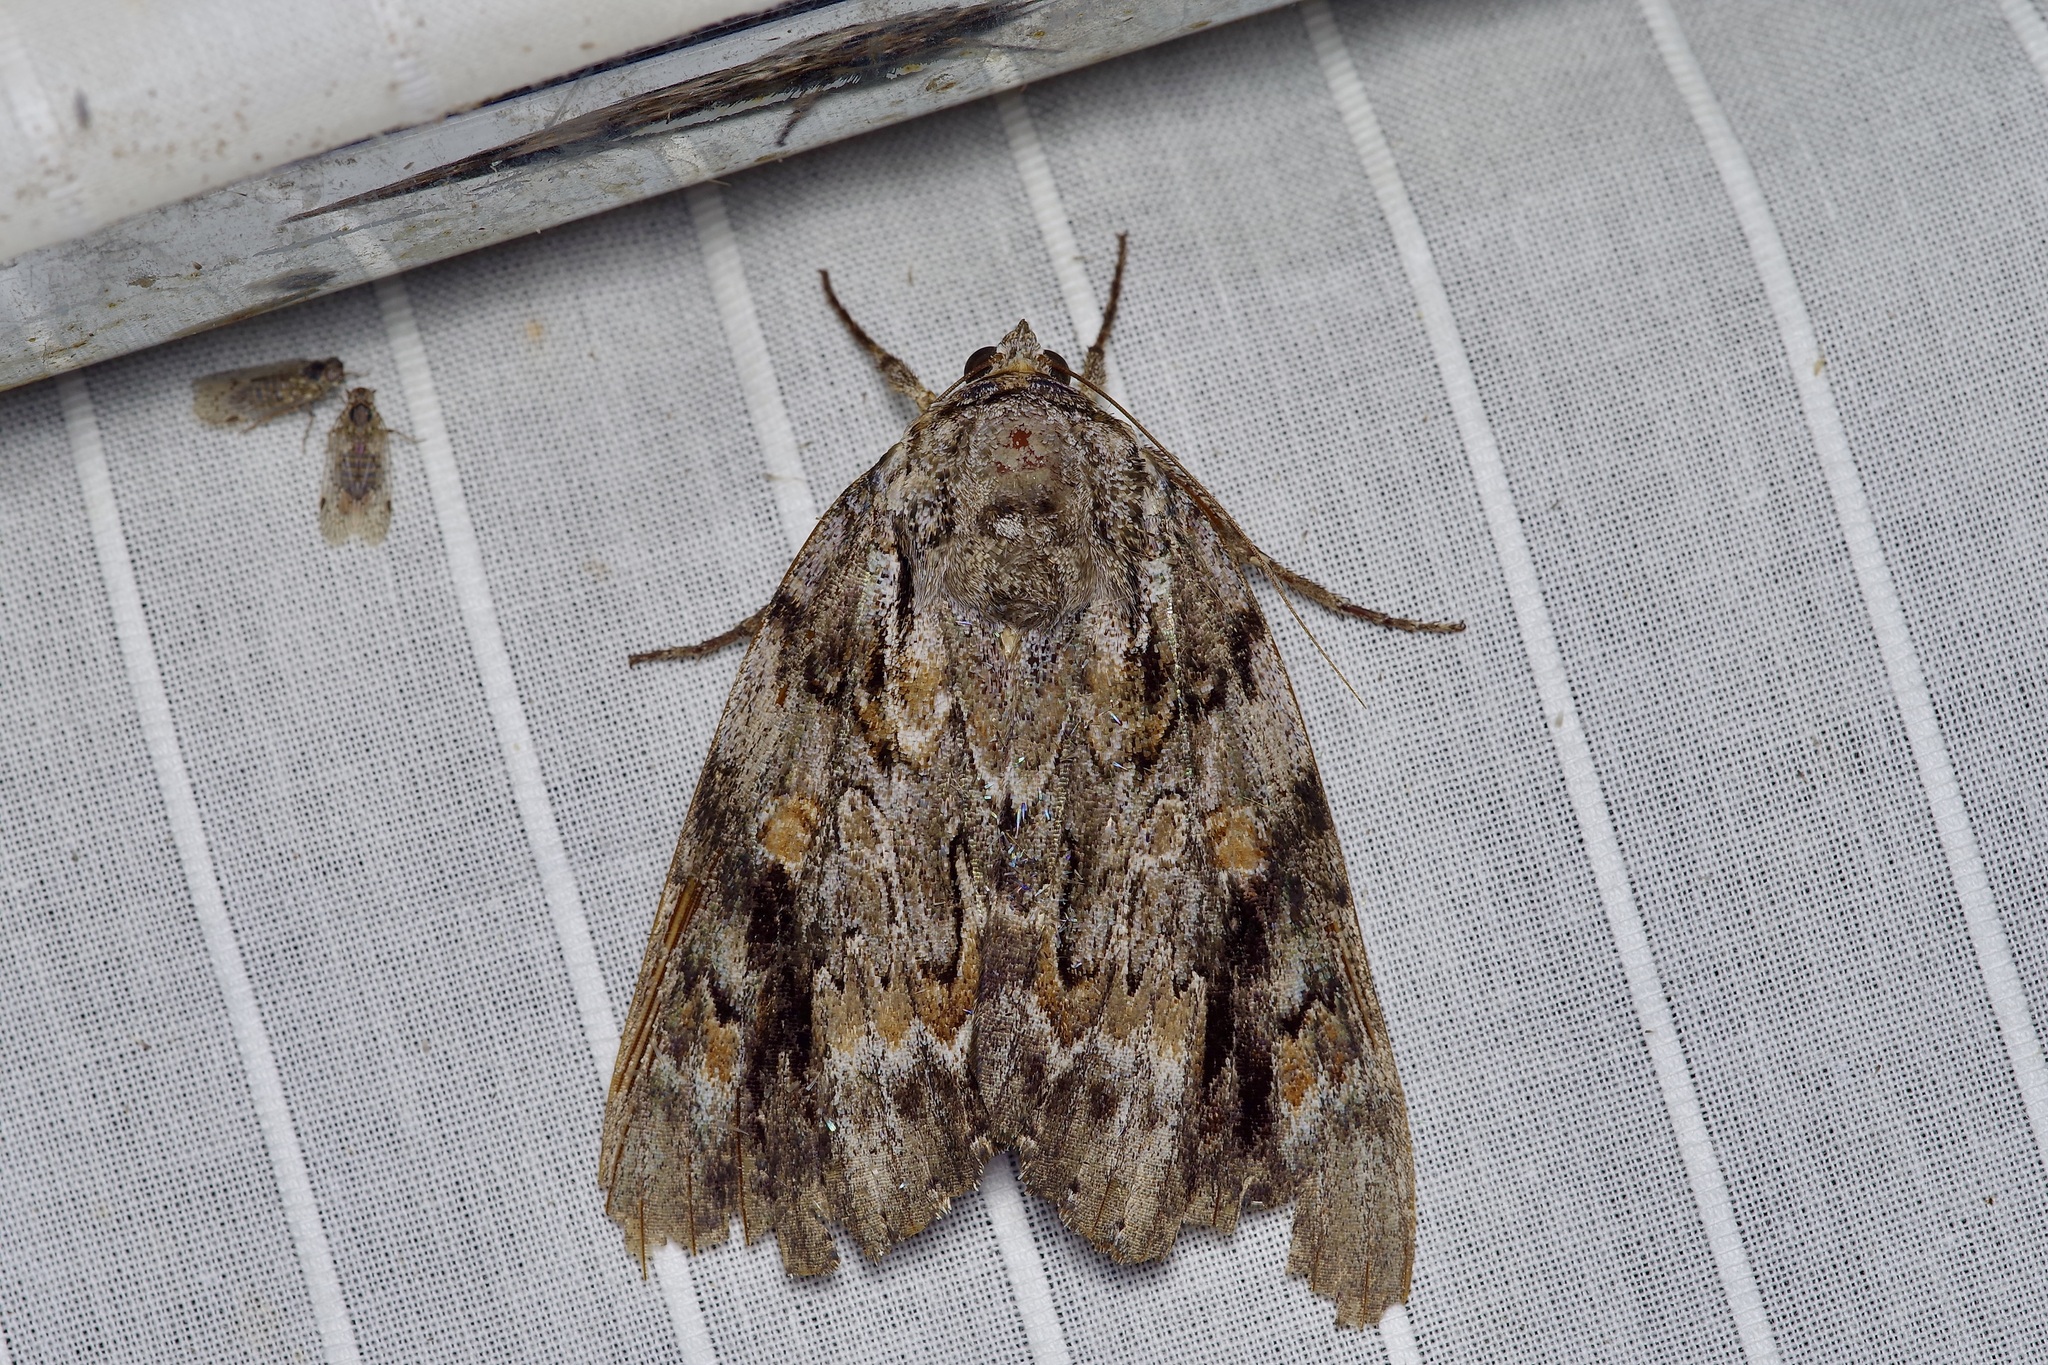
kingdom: Animalia
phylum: Arthropoda
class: Insecta
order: Lepidoptera
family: Erebidae
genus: Catocala
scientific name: Catocala maestosa
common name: Sad underwing
